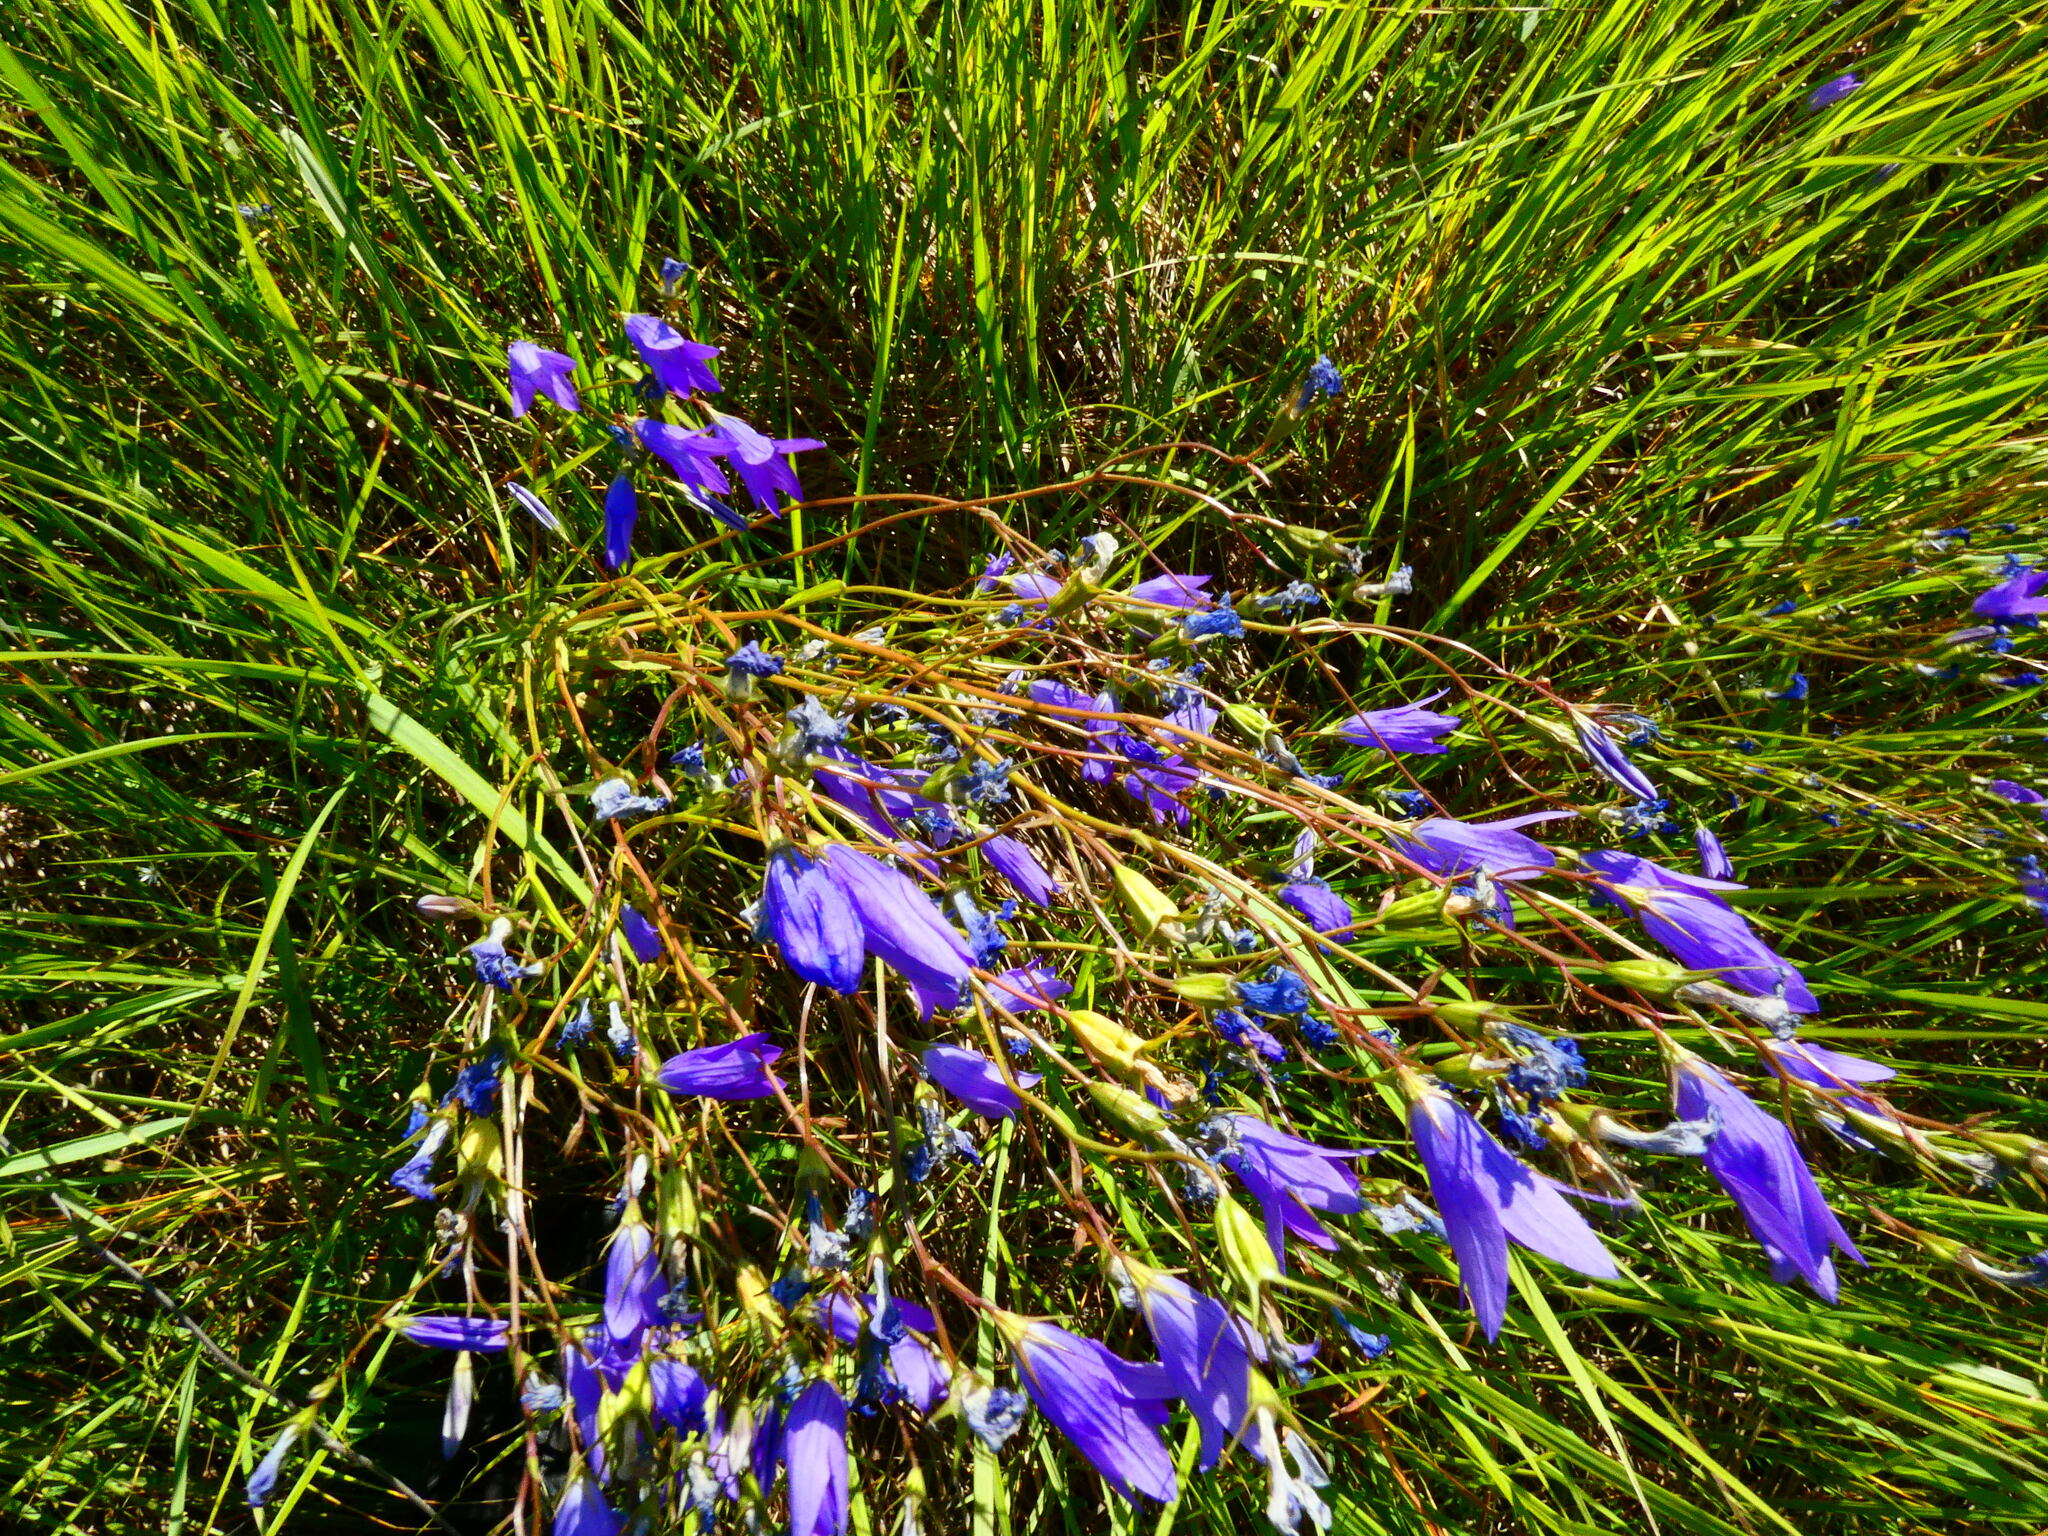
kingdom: Plantae
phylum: Tracheophyta
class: Magnoliopsida
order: Asterales
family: Campanulaceae
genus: Campanula
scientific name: Campanula patula
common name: Spreading bellflower
